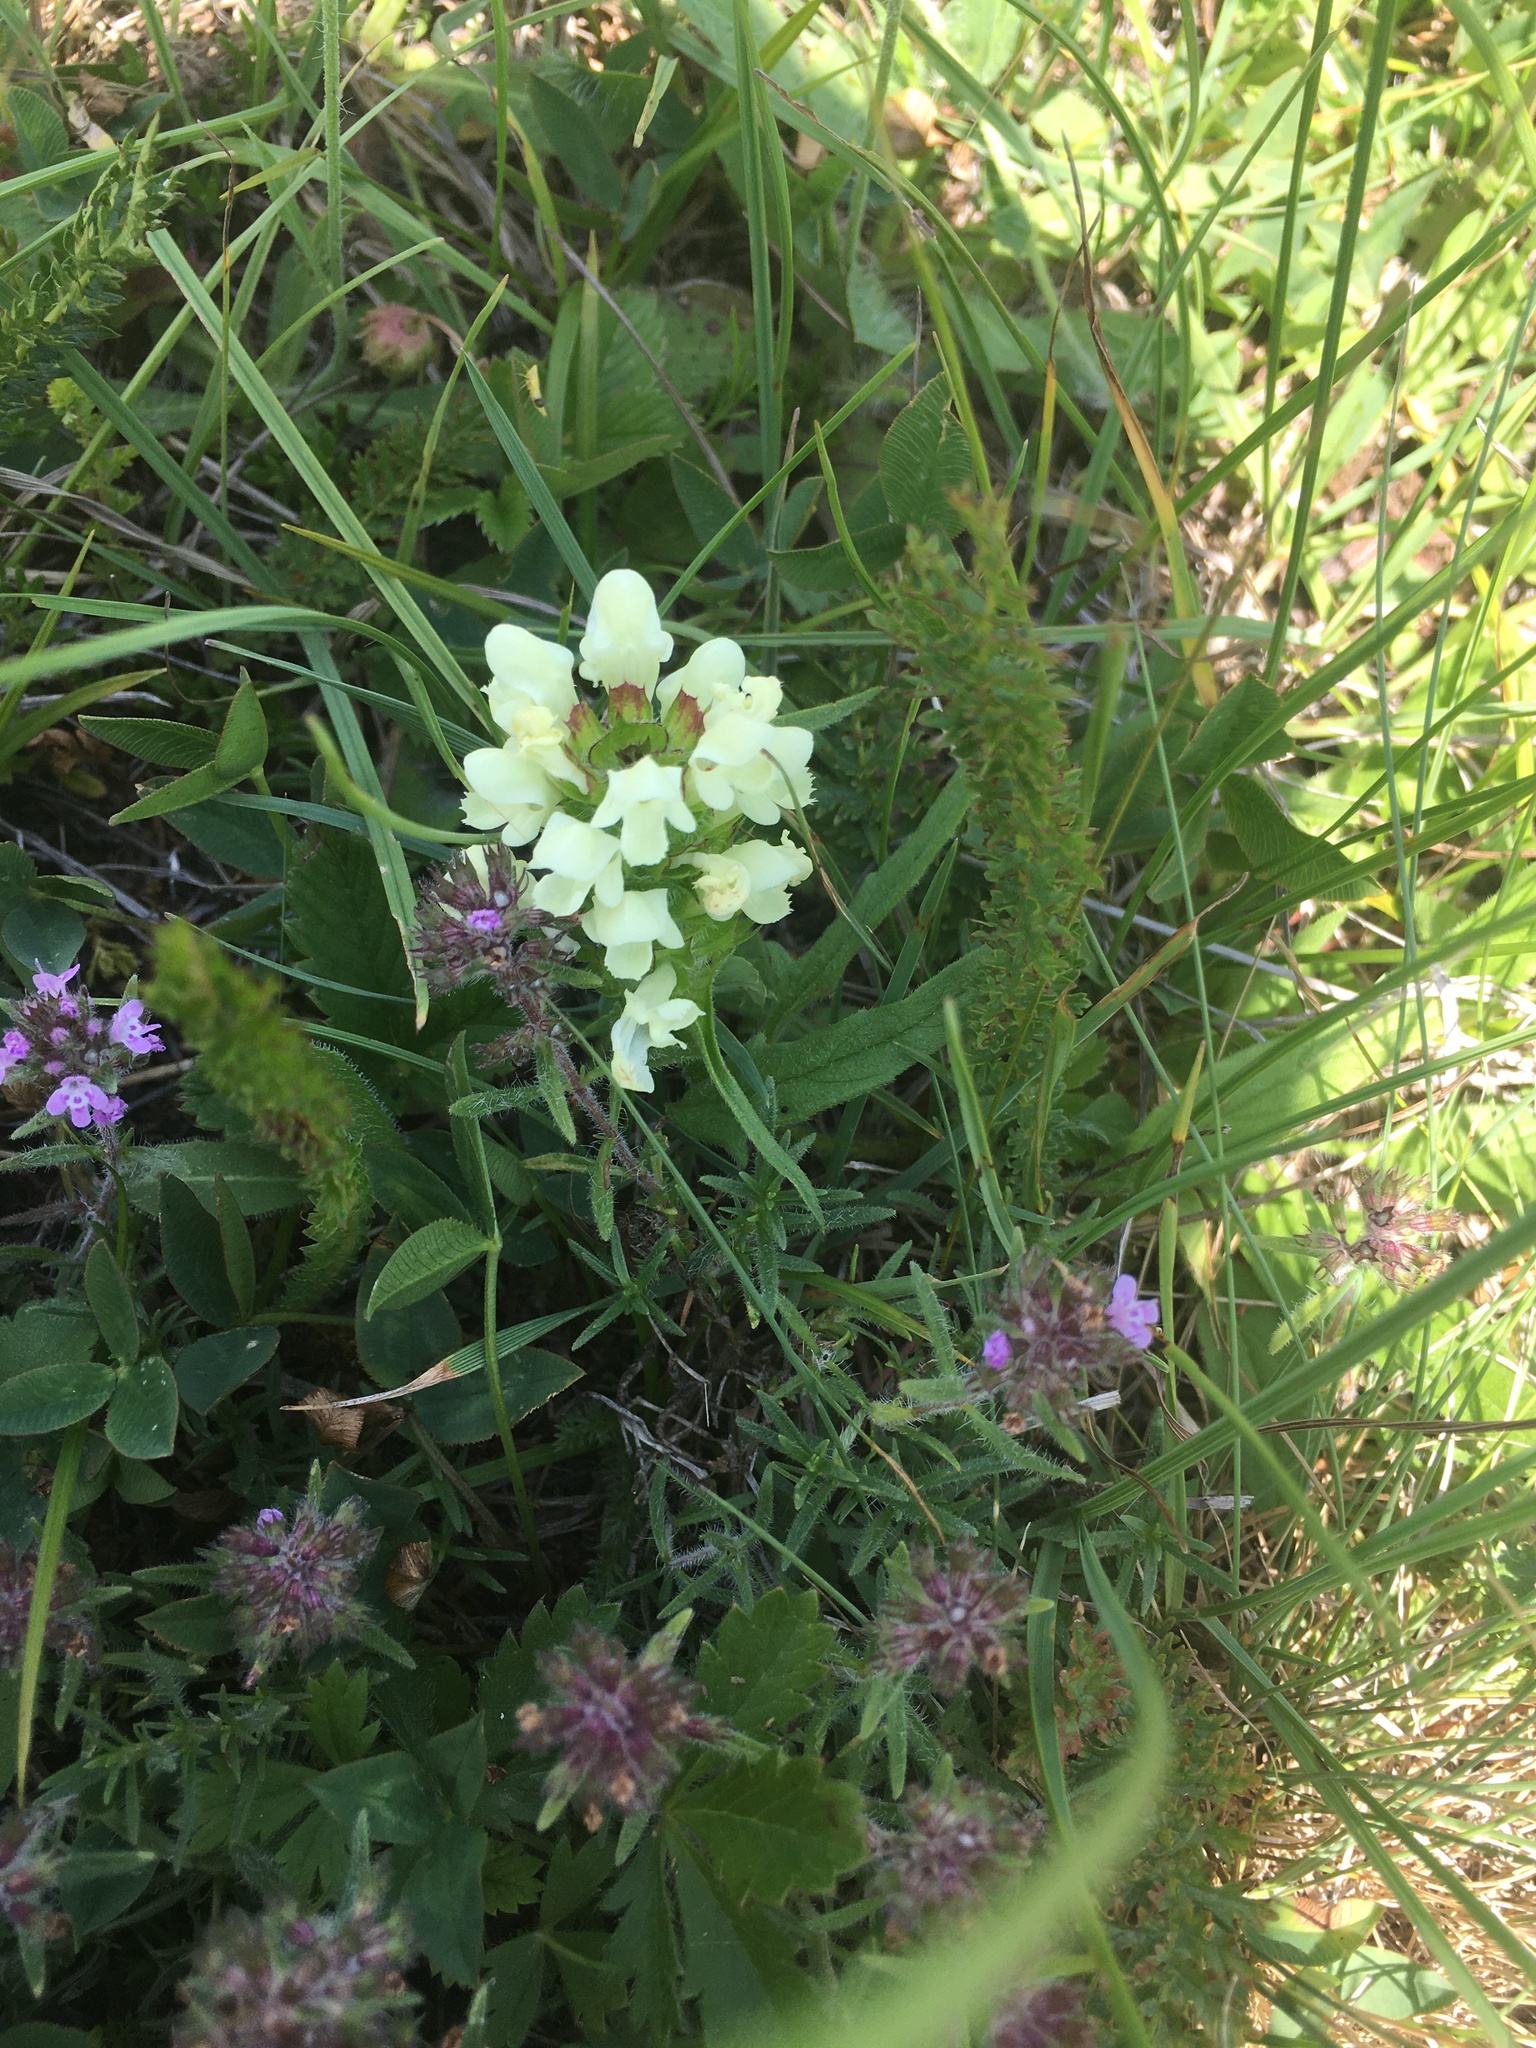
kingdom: Plantae
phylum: Tracheophyta
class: Magnoliopsida
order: Lamiales
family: Lamiaceae
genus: Prunella
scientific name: Prunella laciniata
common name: Cut-leaved selfheal
